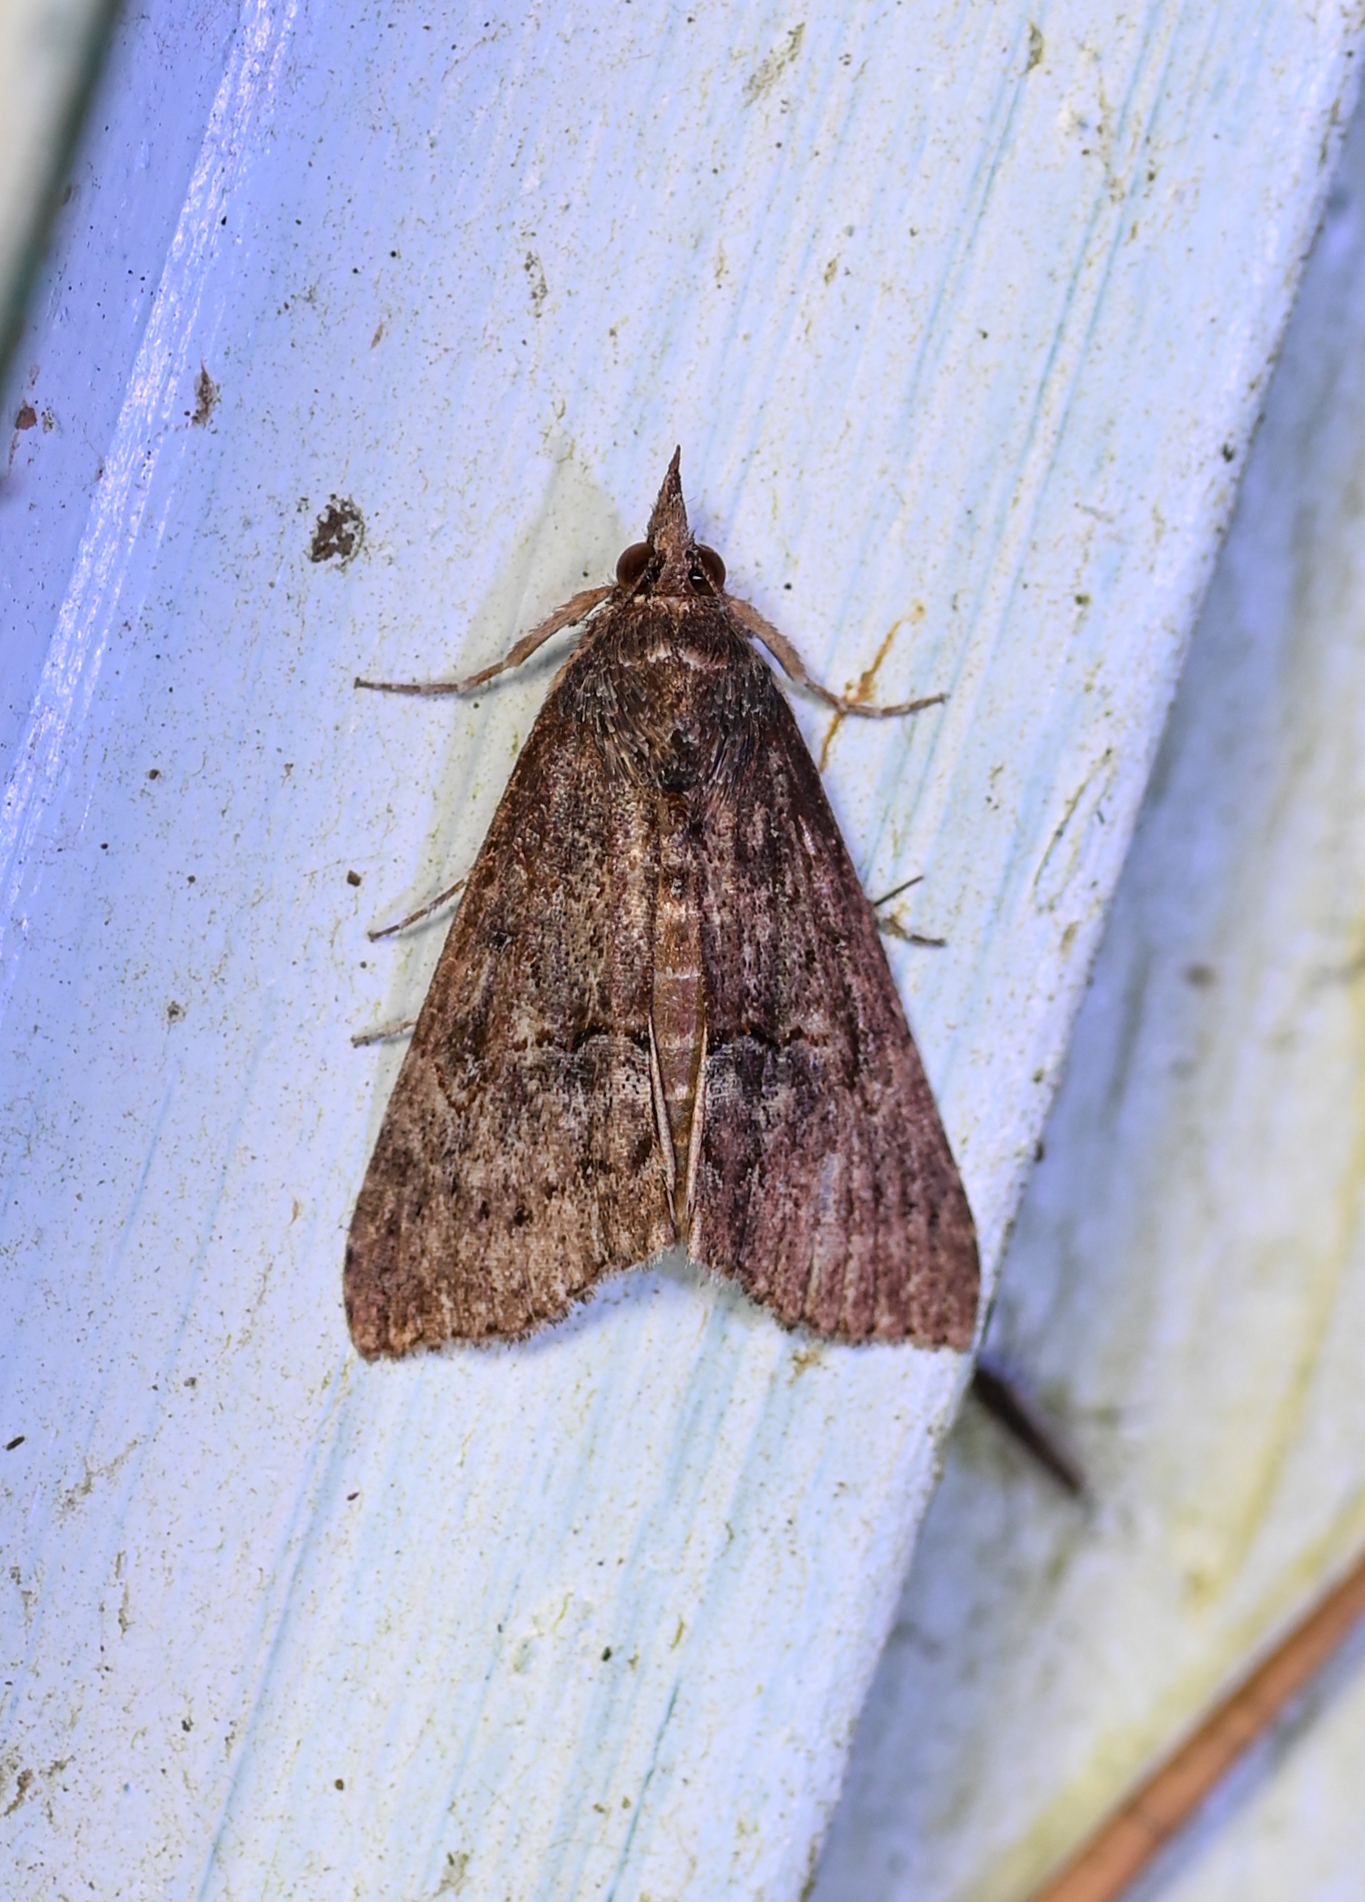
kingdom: Animalia
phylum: Arthropoda
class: Insecta
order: Lepidoptera
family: Erebidae
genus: Hypena
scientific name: Hypena scabra
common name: Green cloverworm
